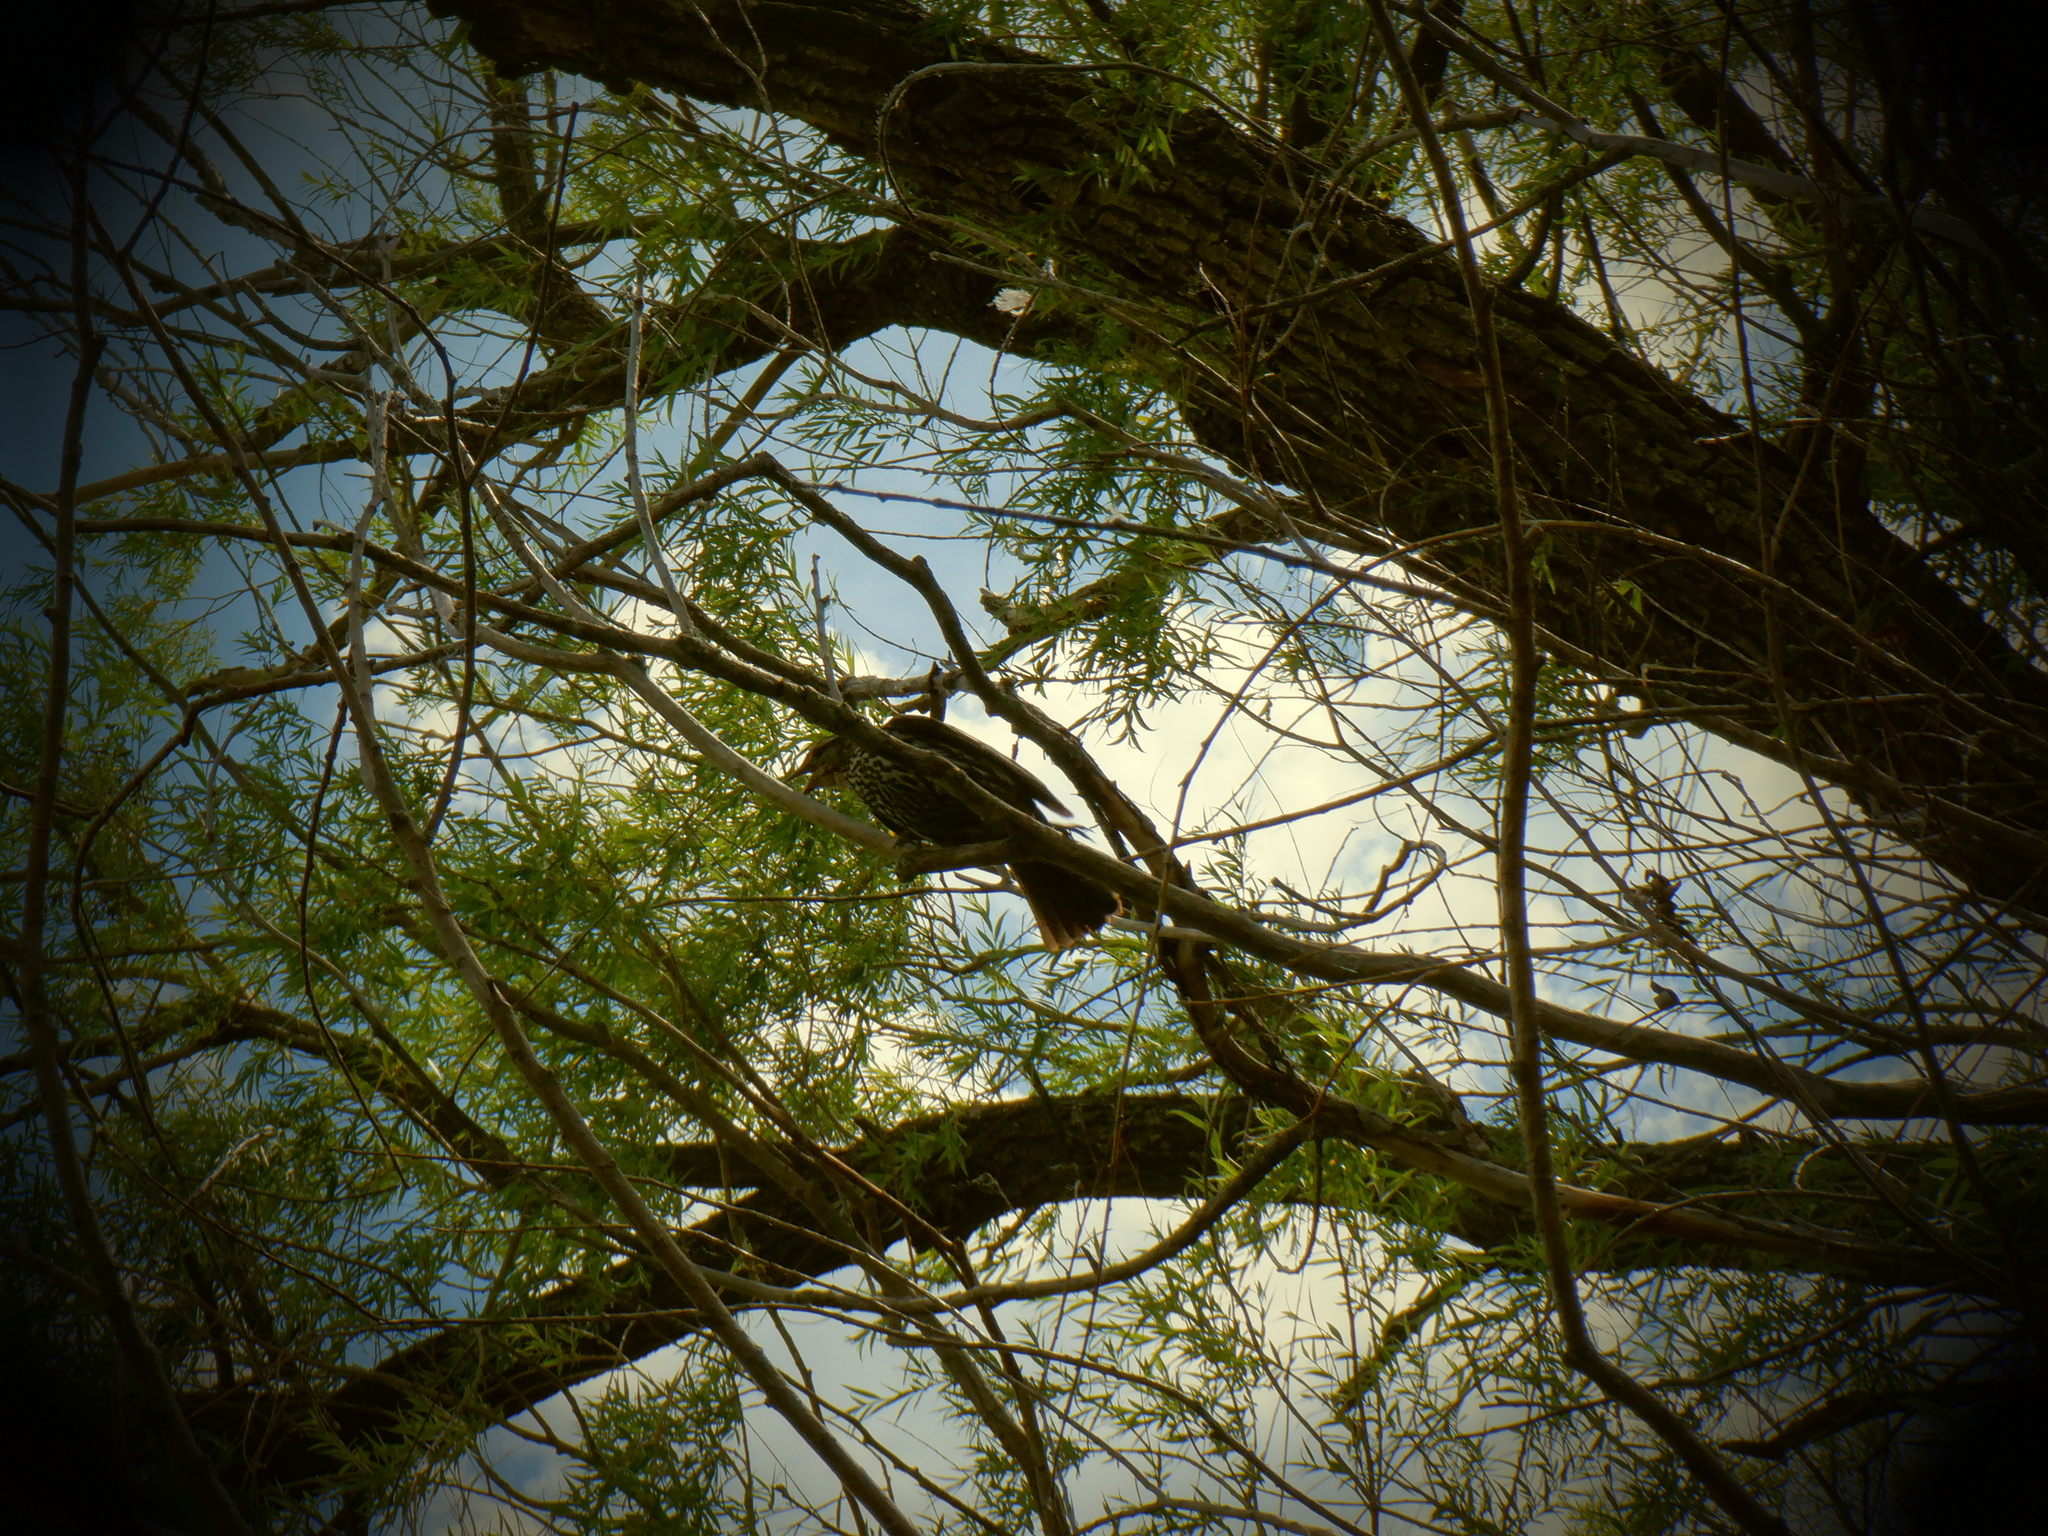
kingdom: Animalia
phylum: Chordata
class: Aves
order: Passeriformes
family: Icteridae
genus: Agelaius
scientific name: Agelaius phoeniceus
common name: Red-winged blackbird
